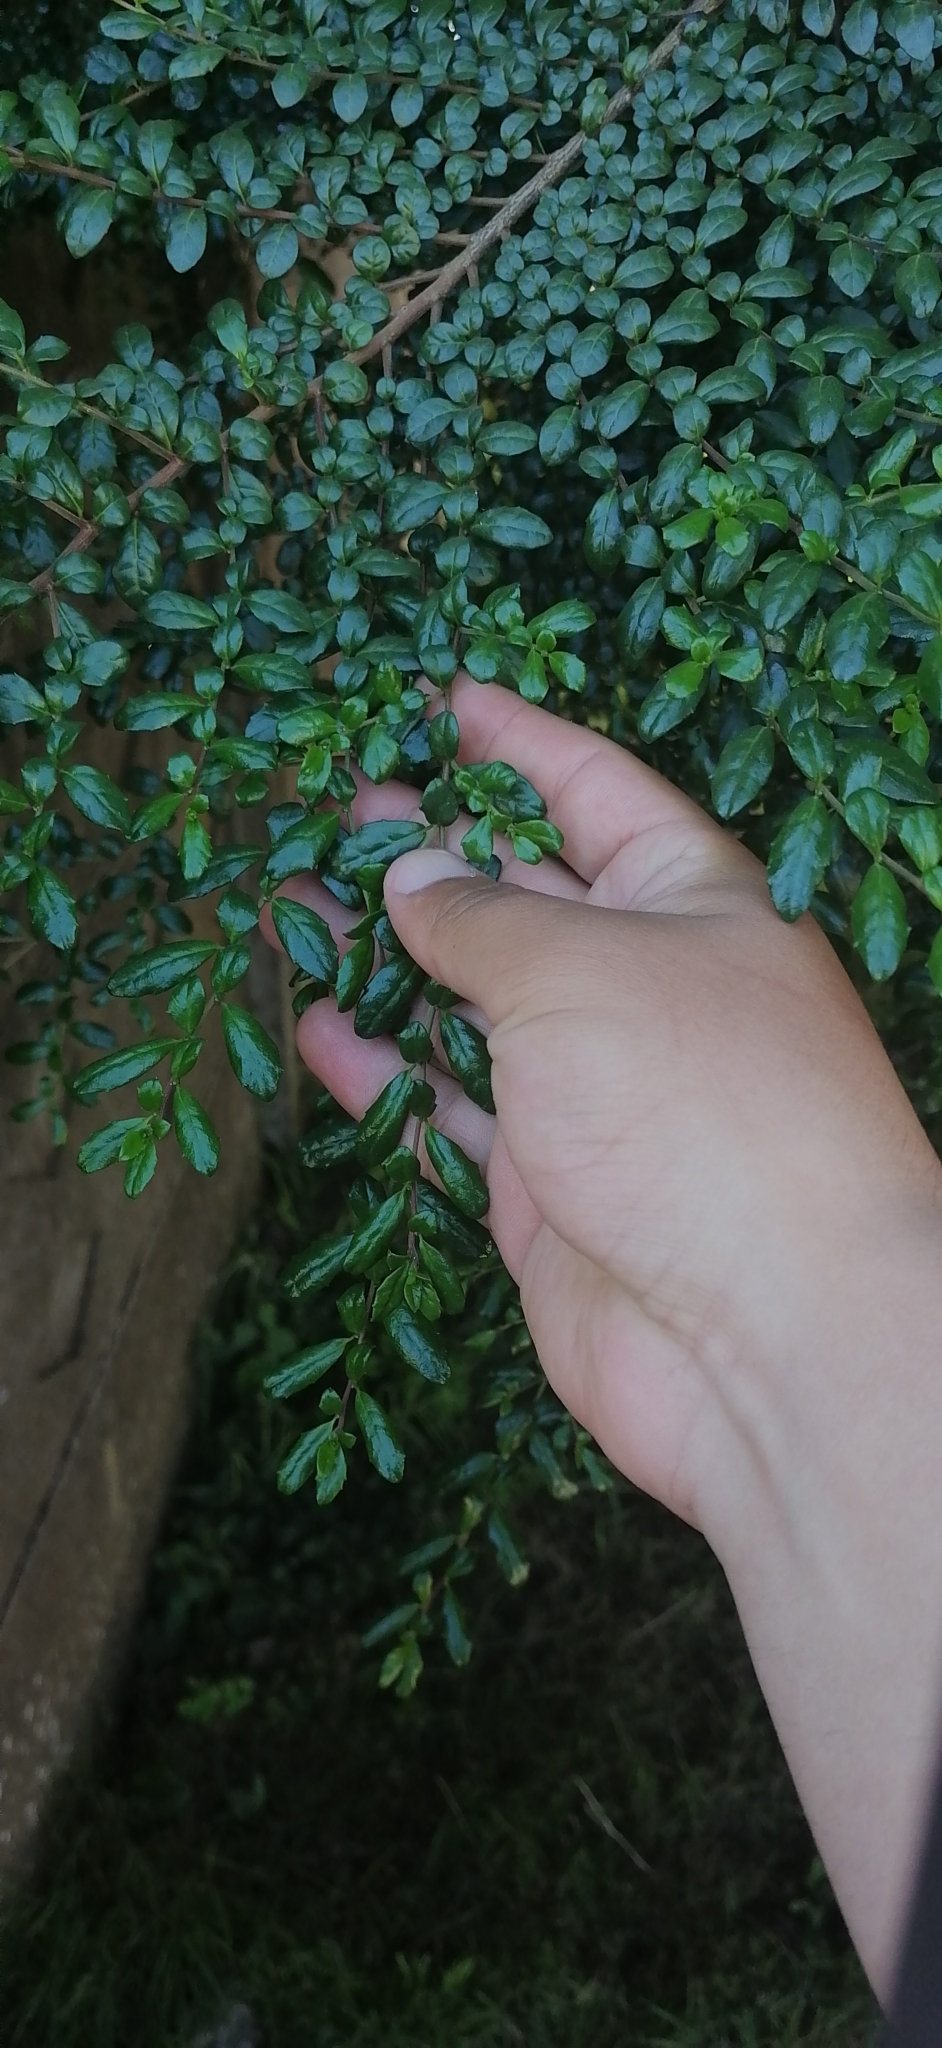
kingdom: Plantae
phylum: Tracheophyta
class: Magnoliopsida
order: Malpighiales
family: Salicaceae
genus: Azara
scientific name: Azara microphylla
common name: Box-leaf azara
